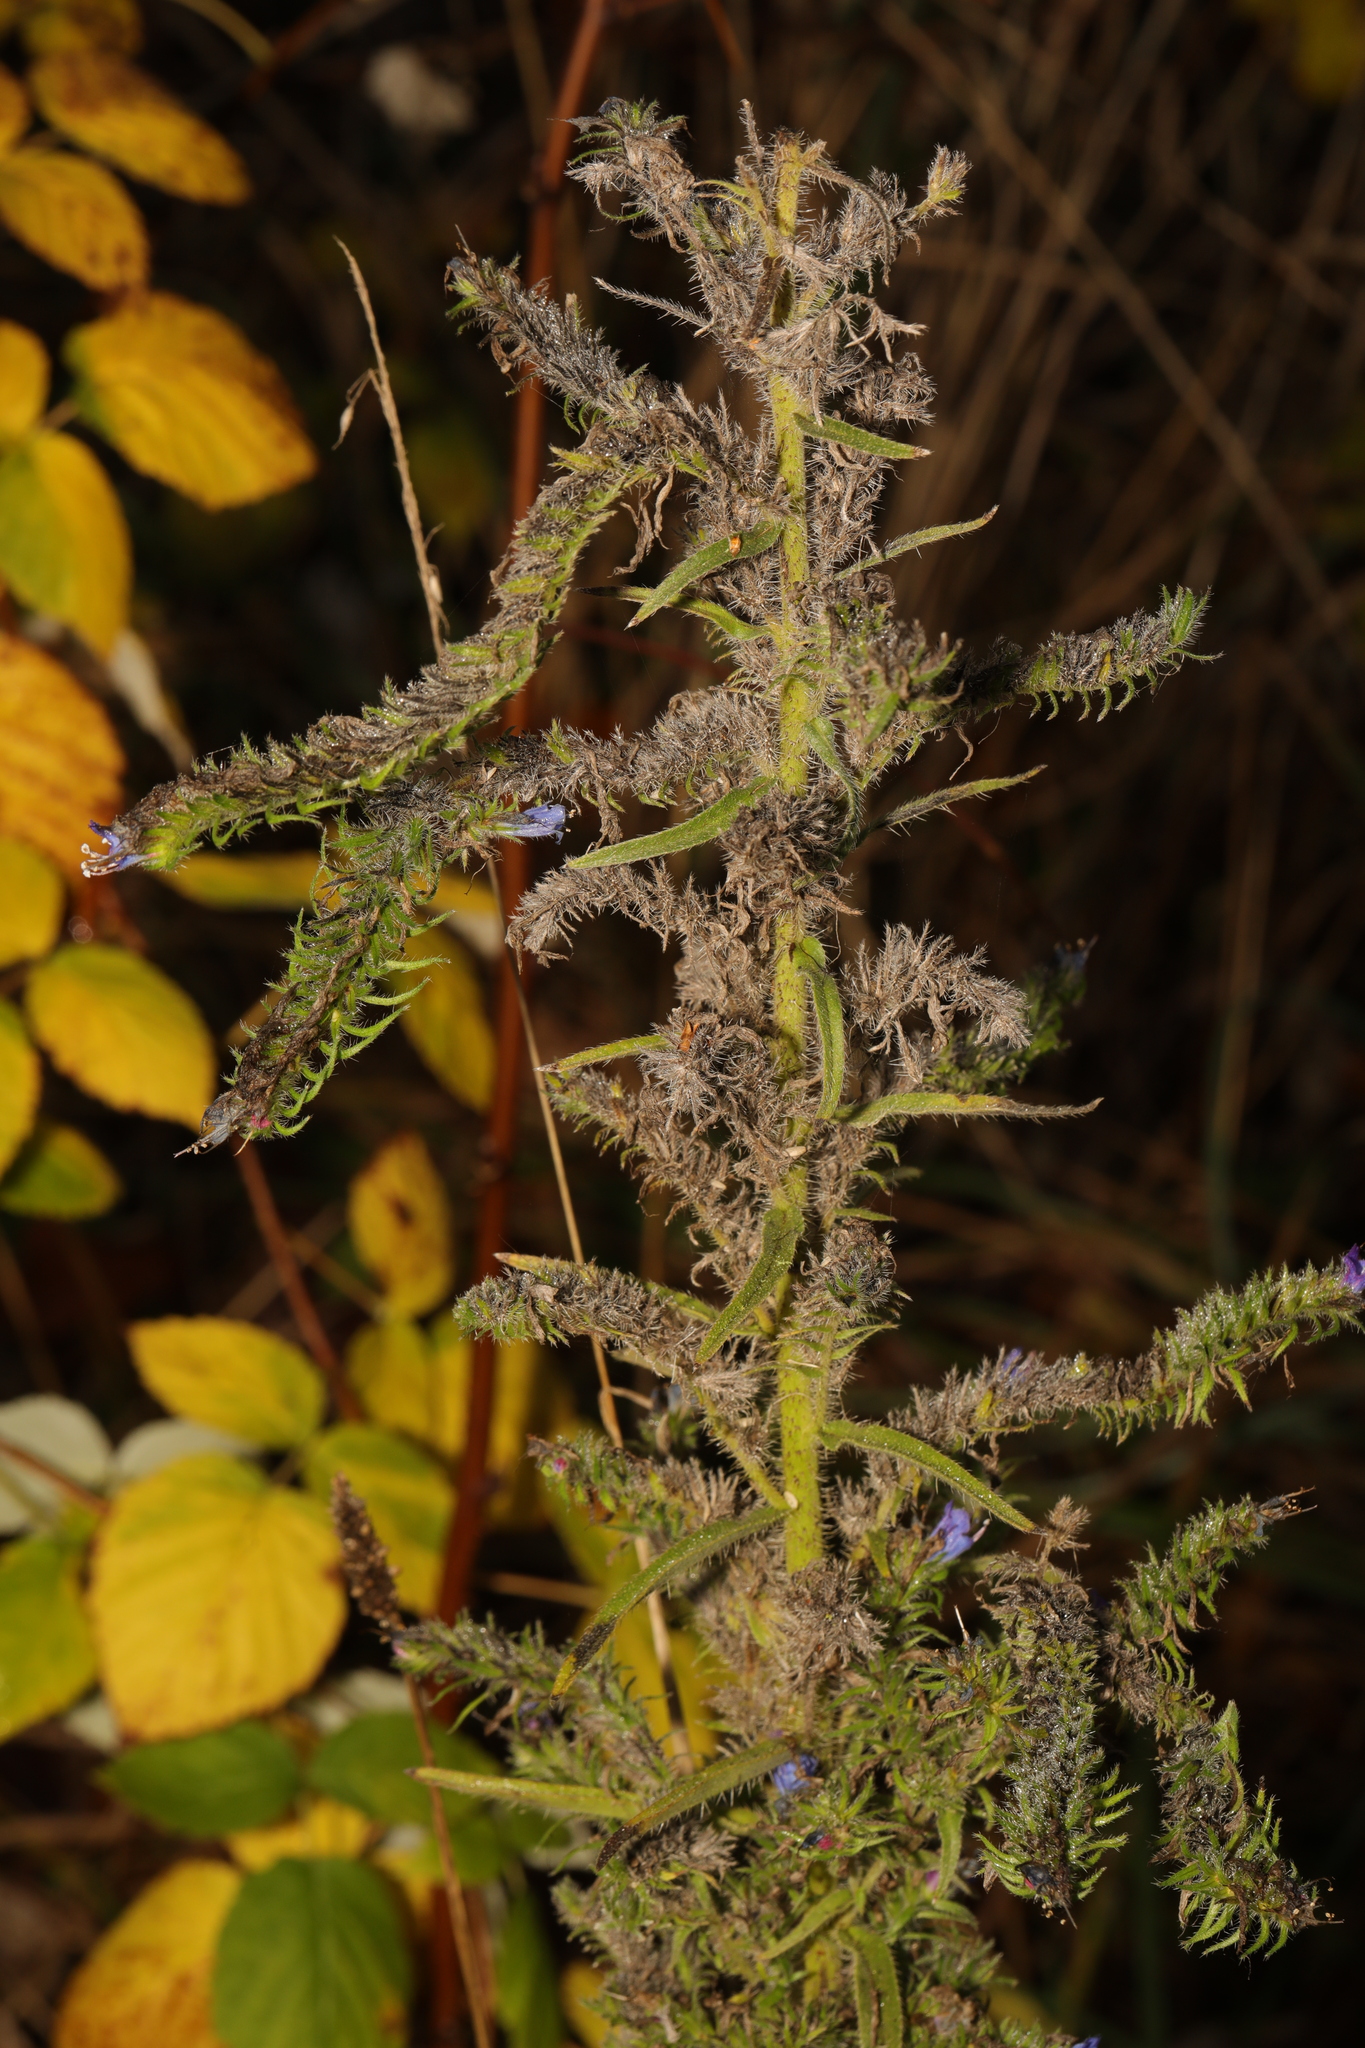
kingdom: Plantae
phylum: Tracheophyta
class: Magnoliopsida
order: Boraginales
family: Boraginaceae
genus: Echium
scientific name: Echium vulgare
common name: Common viper's bugloss
